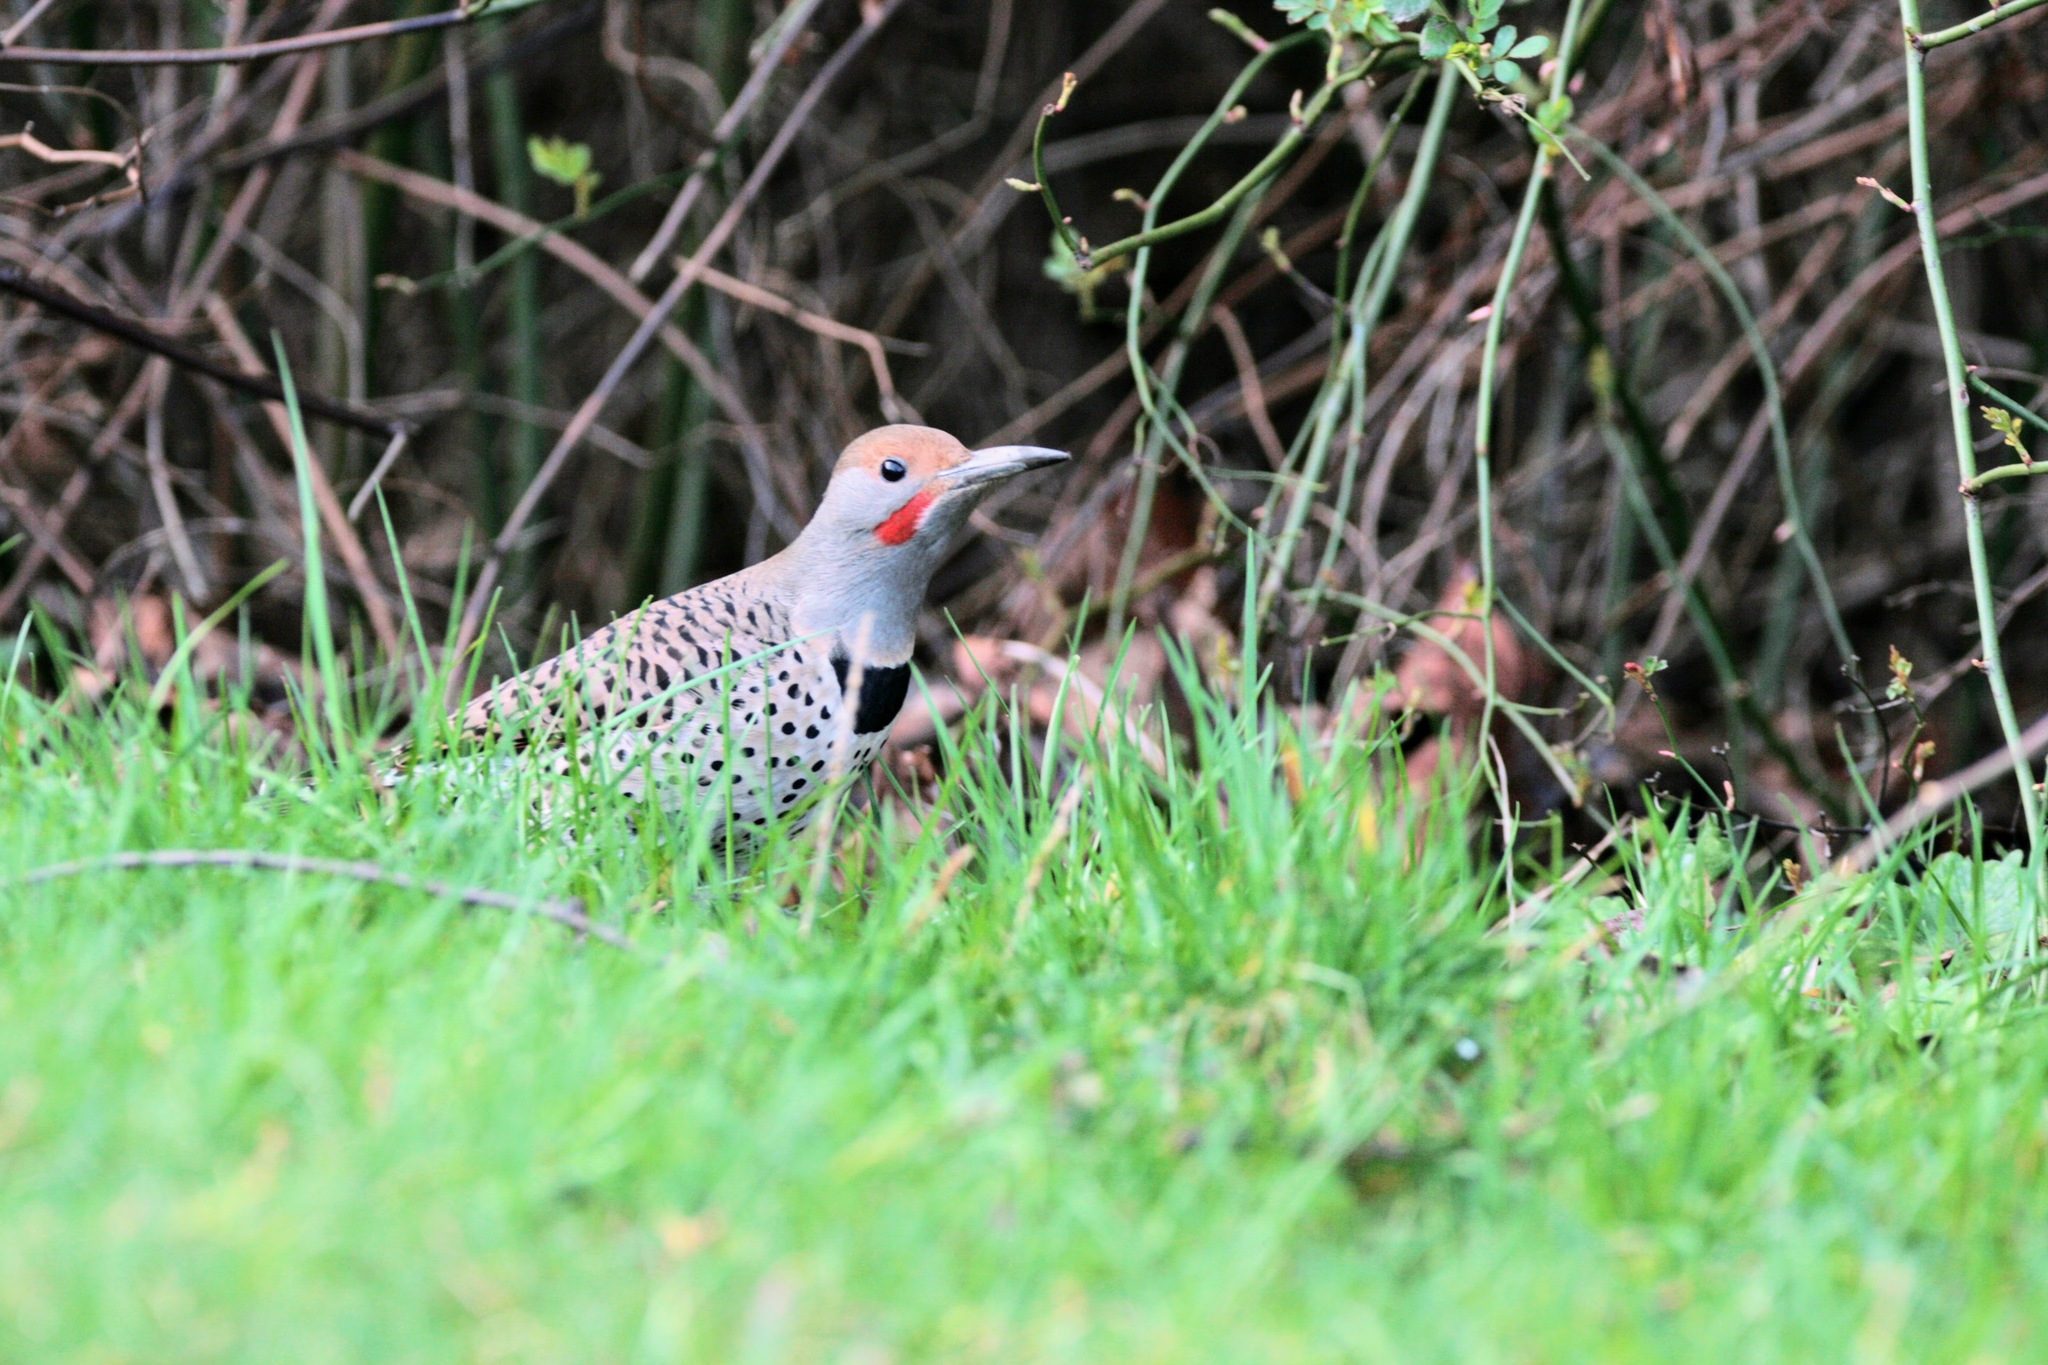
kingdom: Animalia
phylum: Chordata
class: Aves
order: Piciformes
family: Picidae
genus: Colaptes
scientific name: Colaptes auratus
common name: Northern flicker
